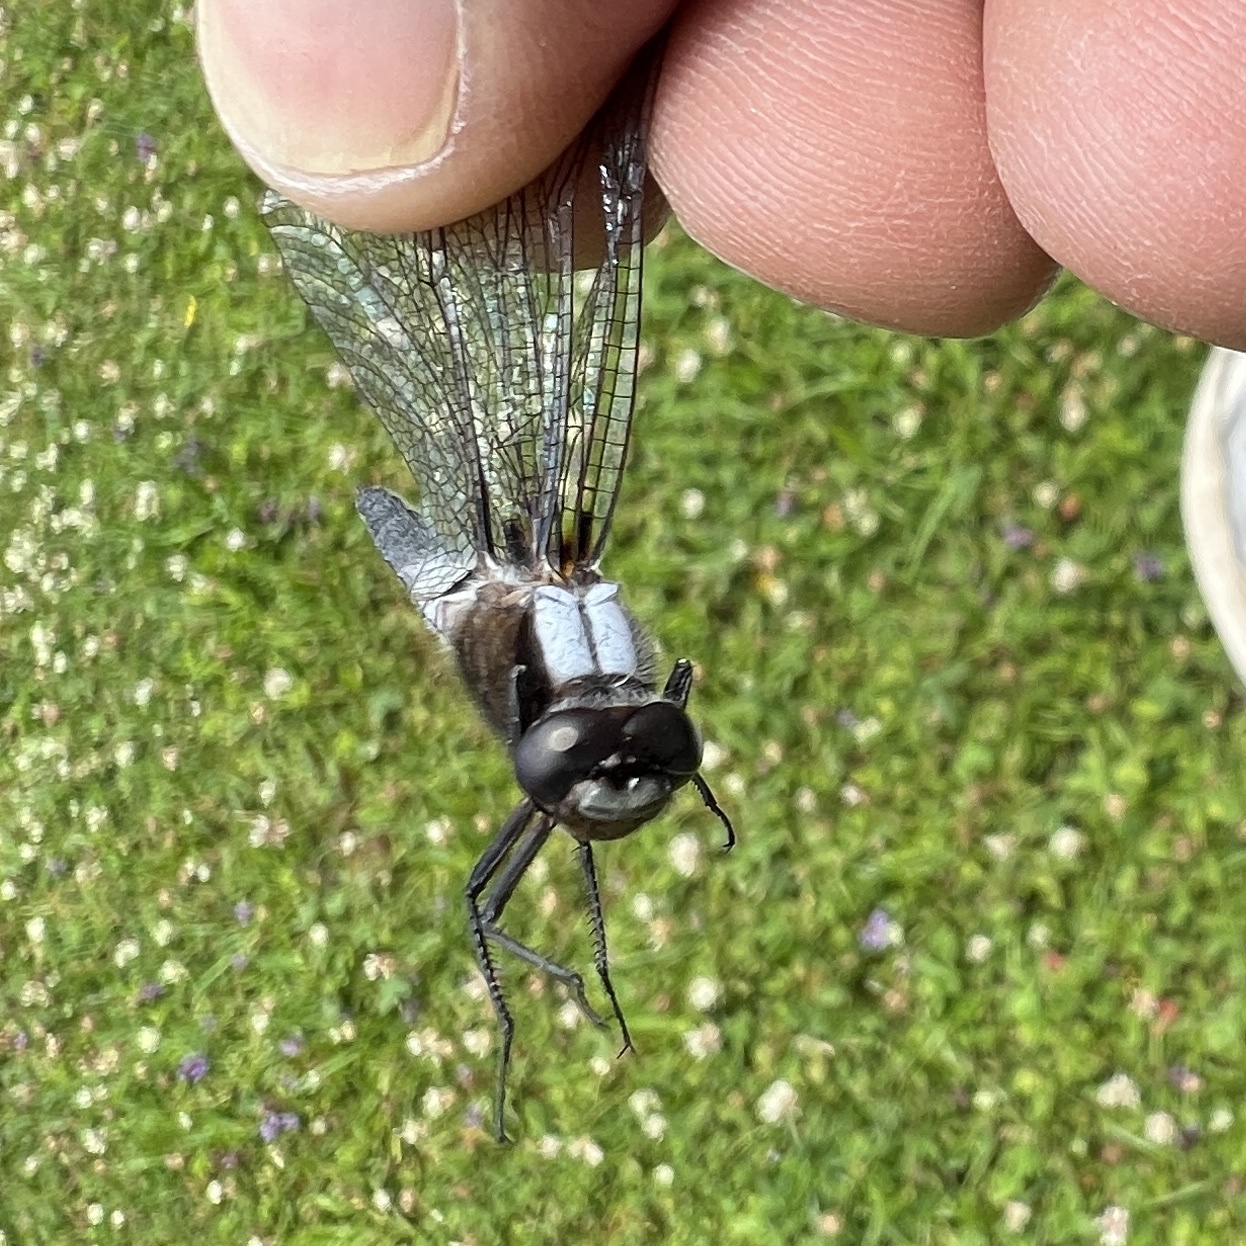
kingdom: Animalia
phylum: Arthropoda
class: Insecta
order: Odonata
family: Libellulidae
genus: Ladona
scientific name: Ladona julia
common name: Chalk-fronted corporal
